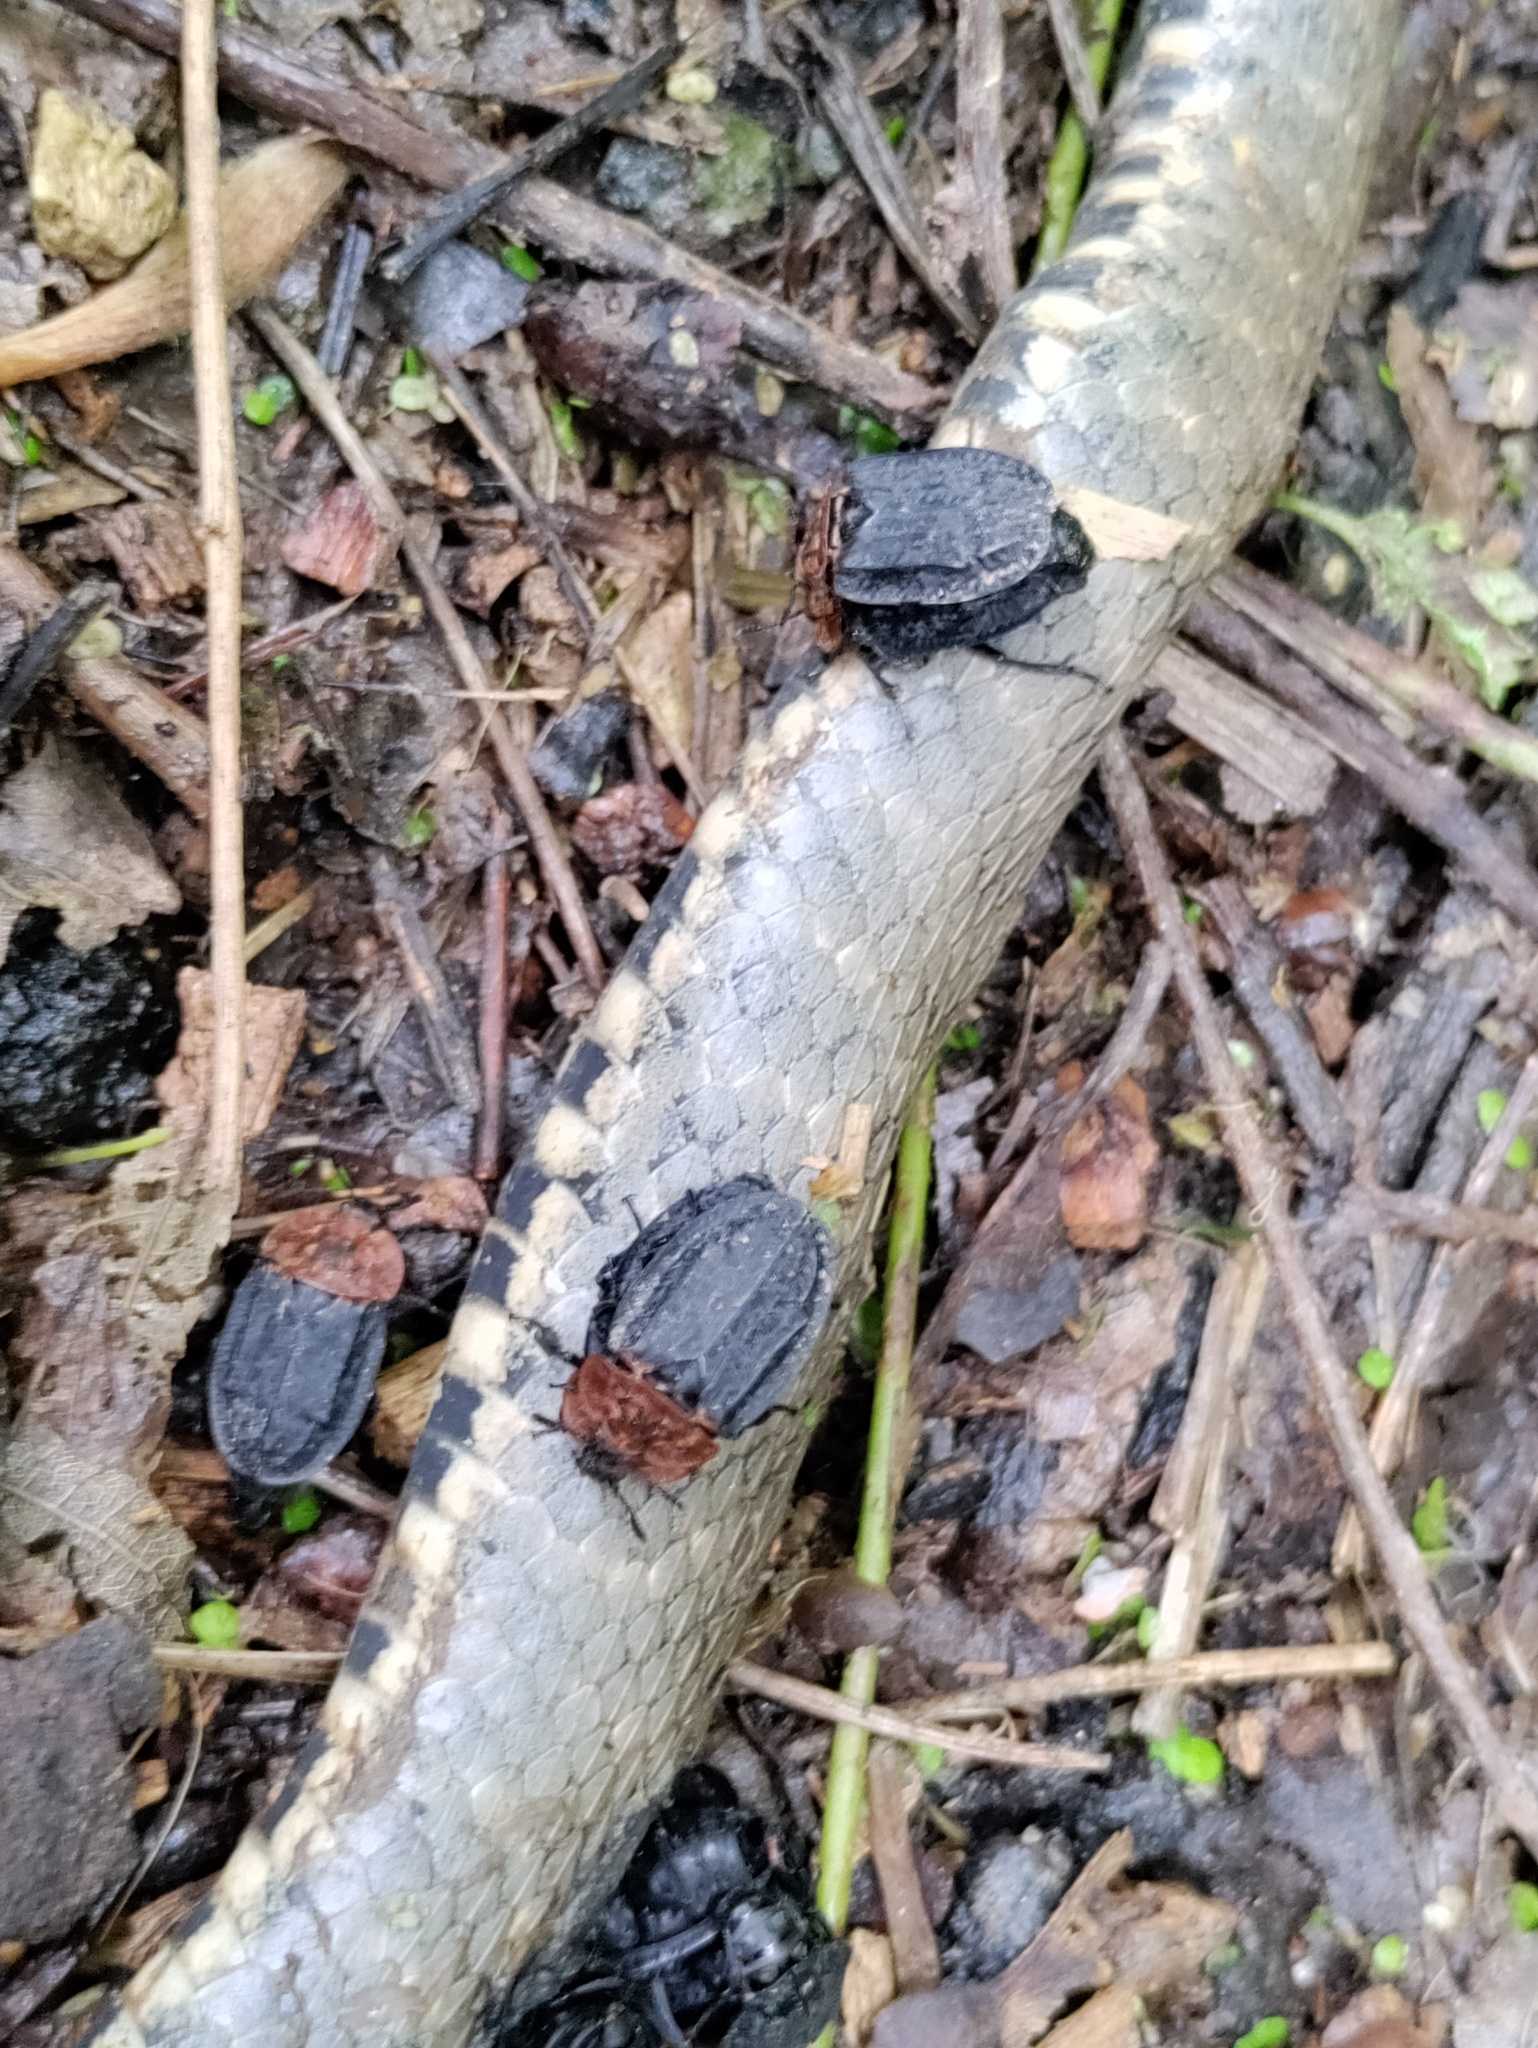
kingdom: Animalia
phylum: Arthropoda
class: Insecta
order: Coleoptera
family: Staphylinidae
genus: Oiceoptoma
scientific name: Oiceoptoma thoracicum
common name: Red-breasted carrion beetle
